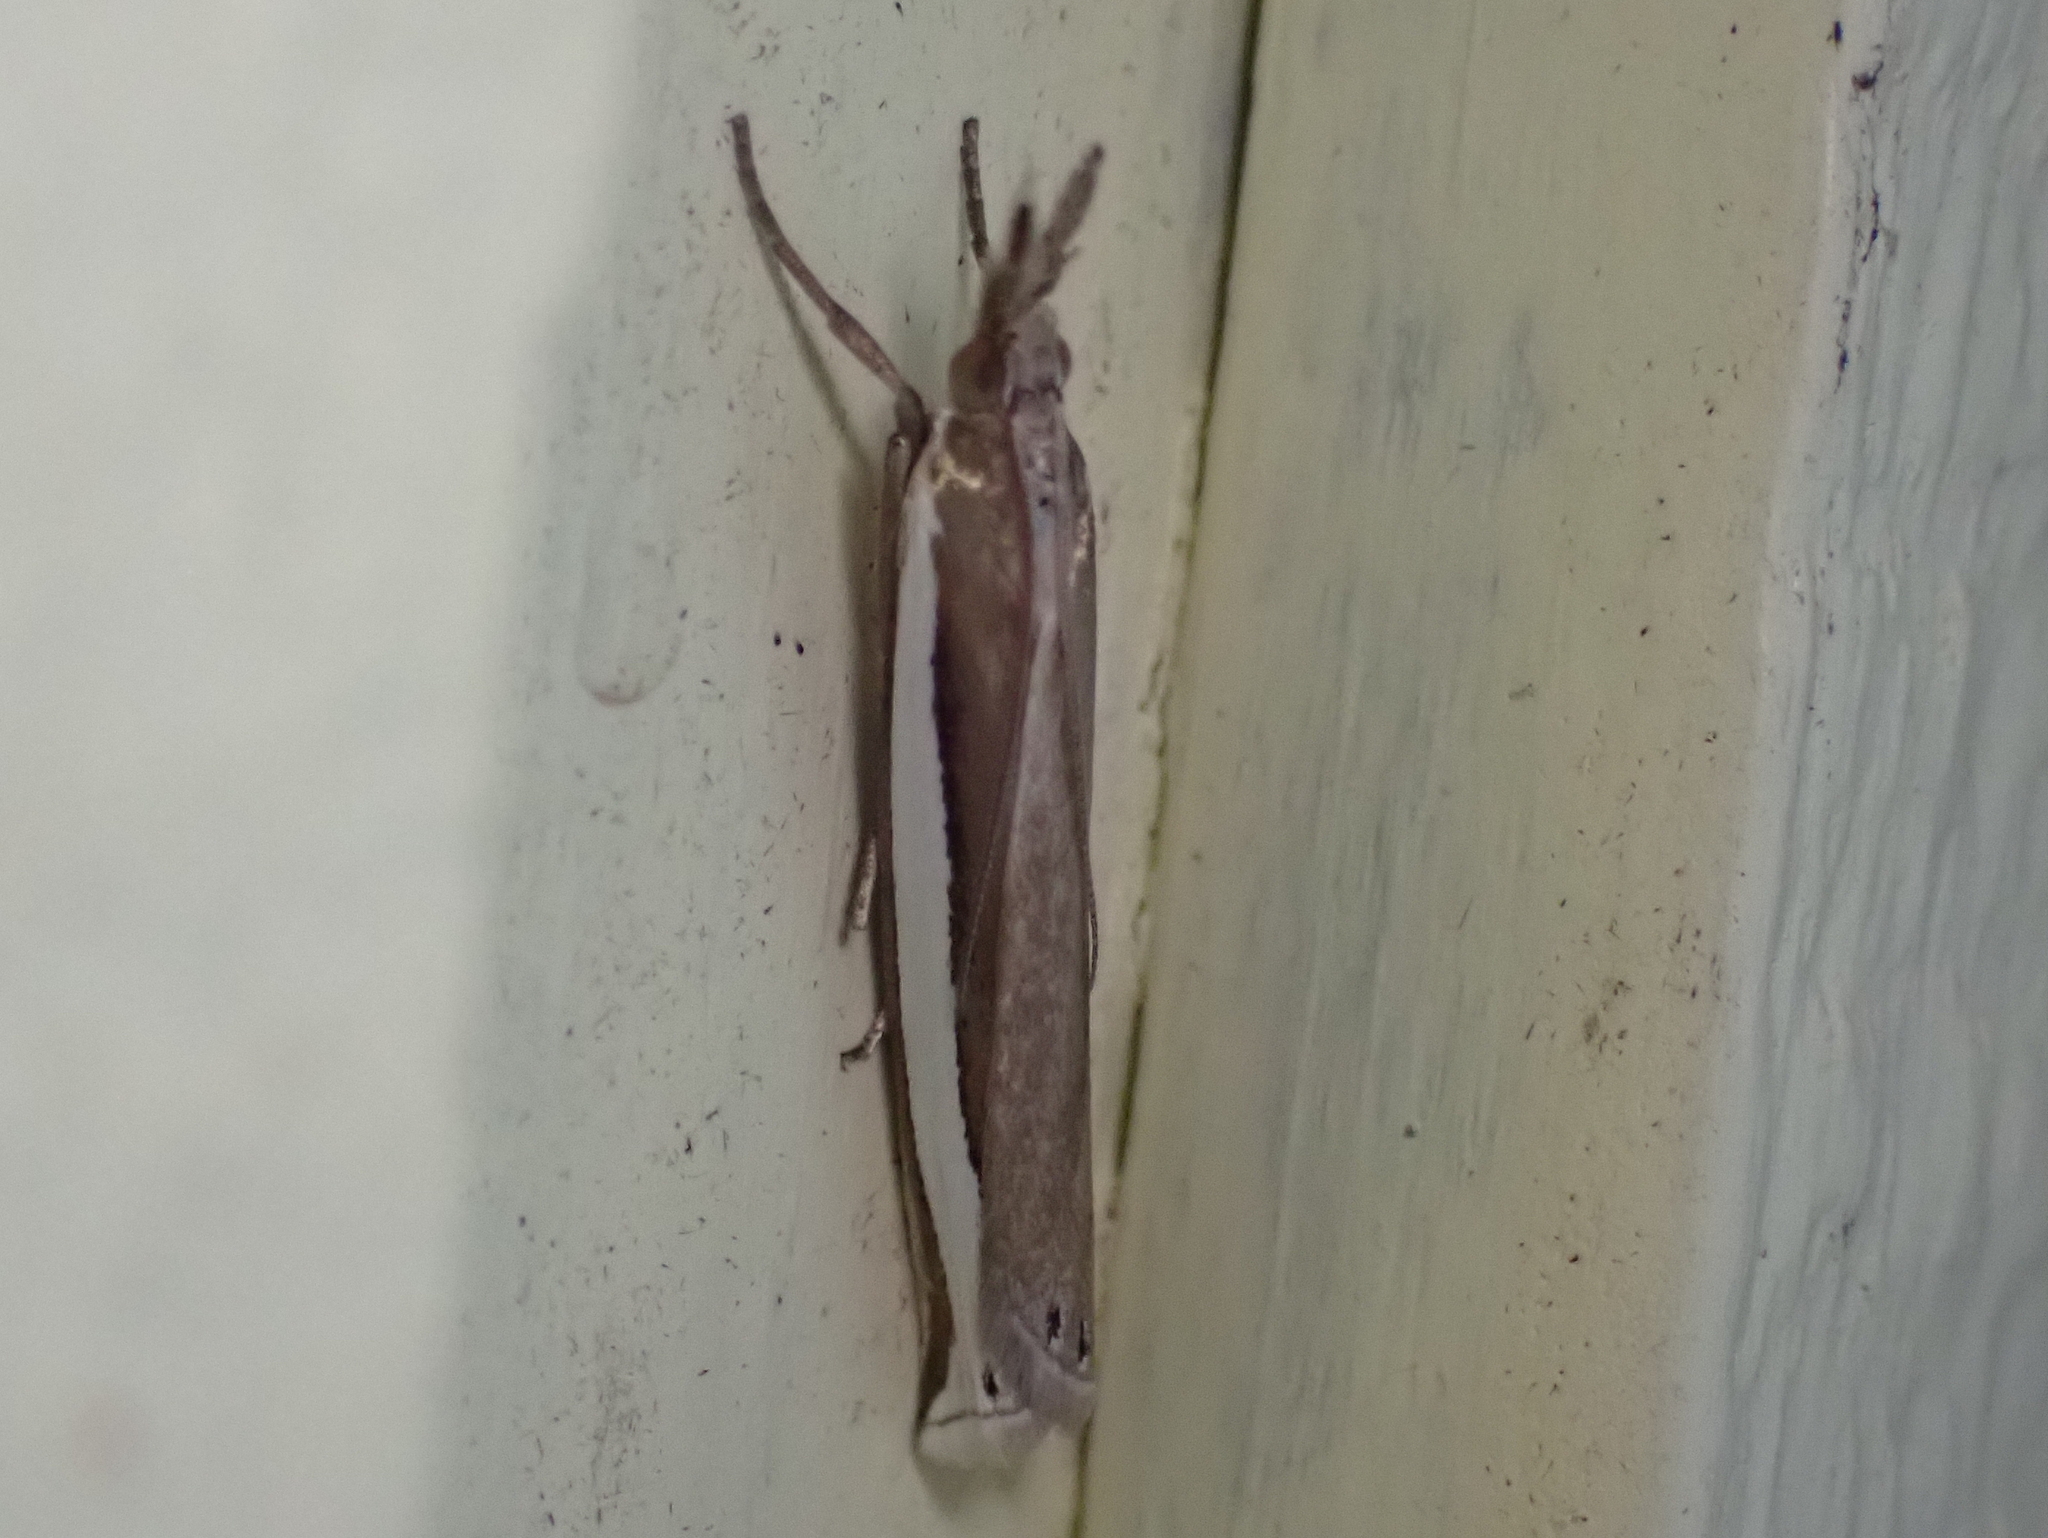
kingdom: Animalia
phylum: Arthropoda
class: Insecta
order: Lepidoptera
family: Crambidae
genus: Crambus
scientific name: Crambus unistriatellus
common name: Wide-stripe grass-veneer moth
